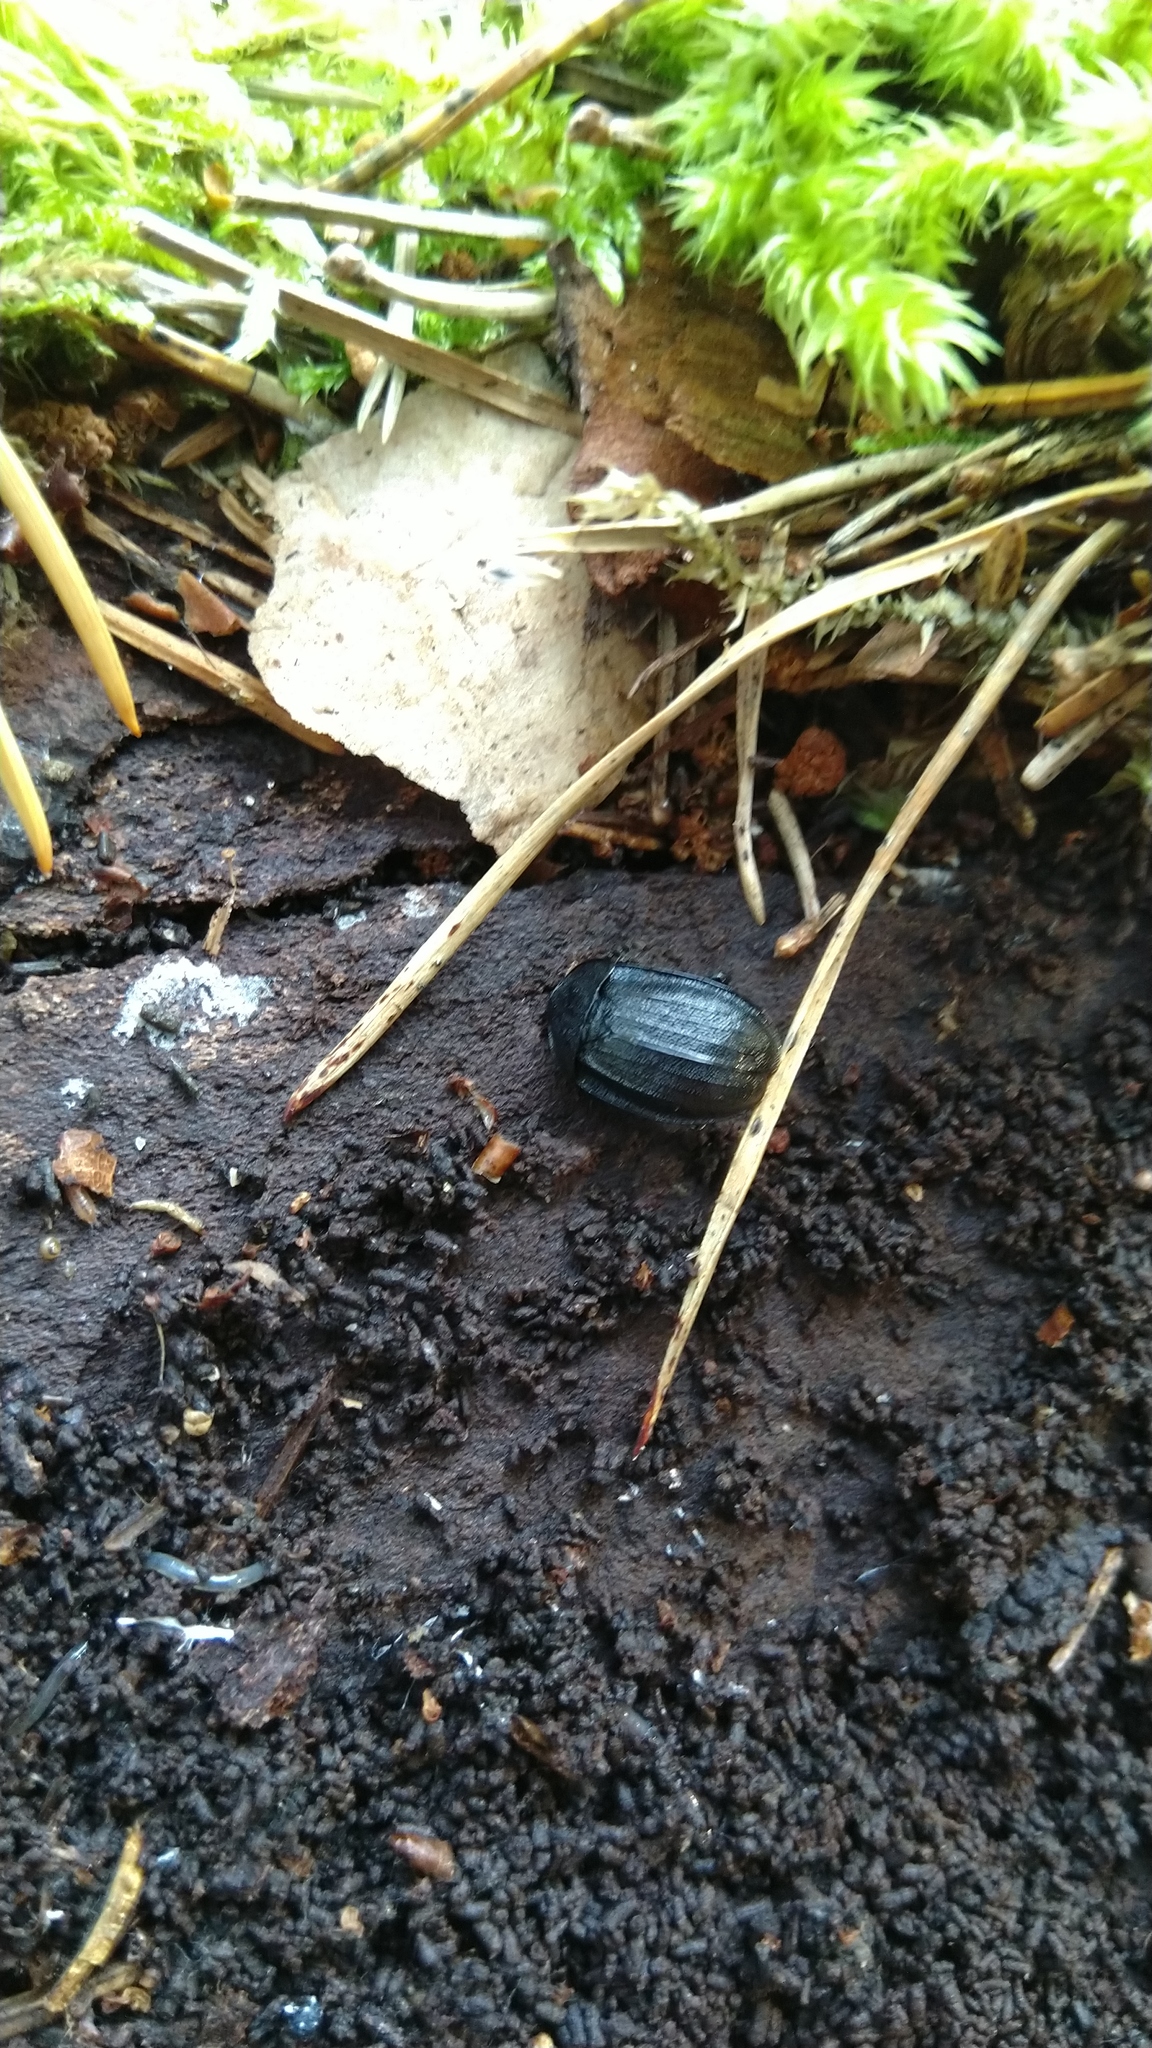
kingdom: Animalia
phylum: Arthropoda
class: Insecta
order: Coleoptera
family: Staphylinidae
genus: Silpha
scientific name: Silpha atrata
